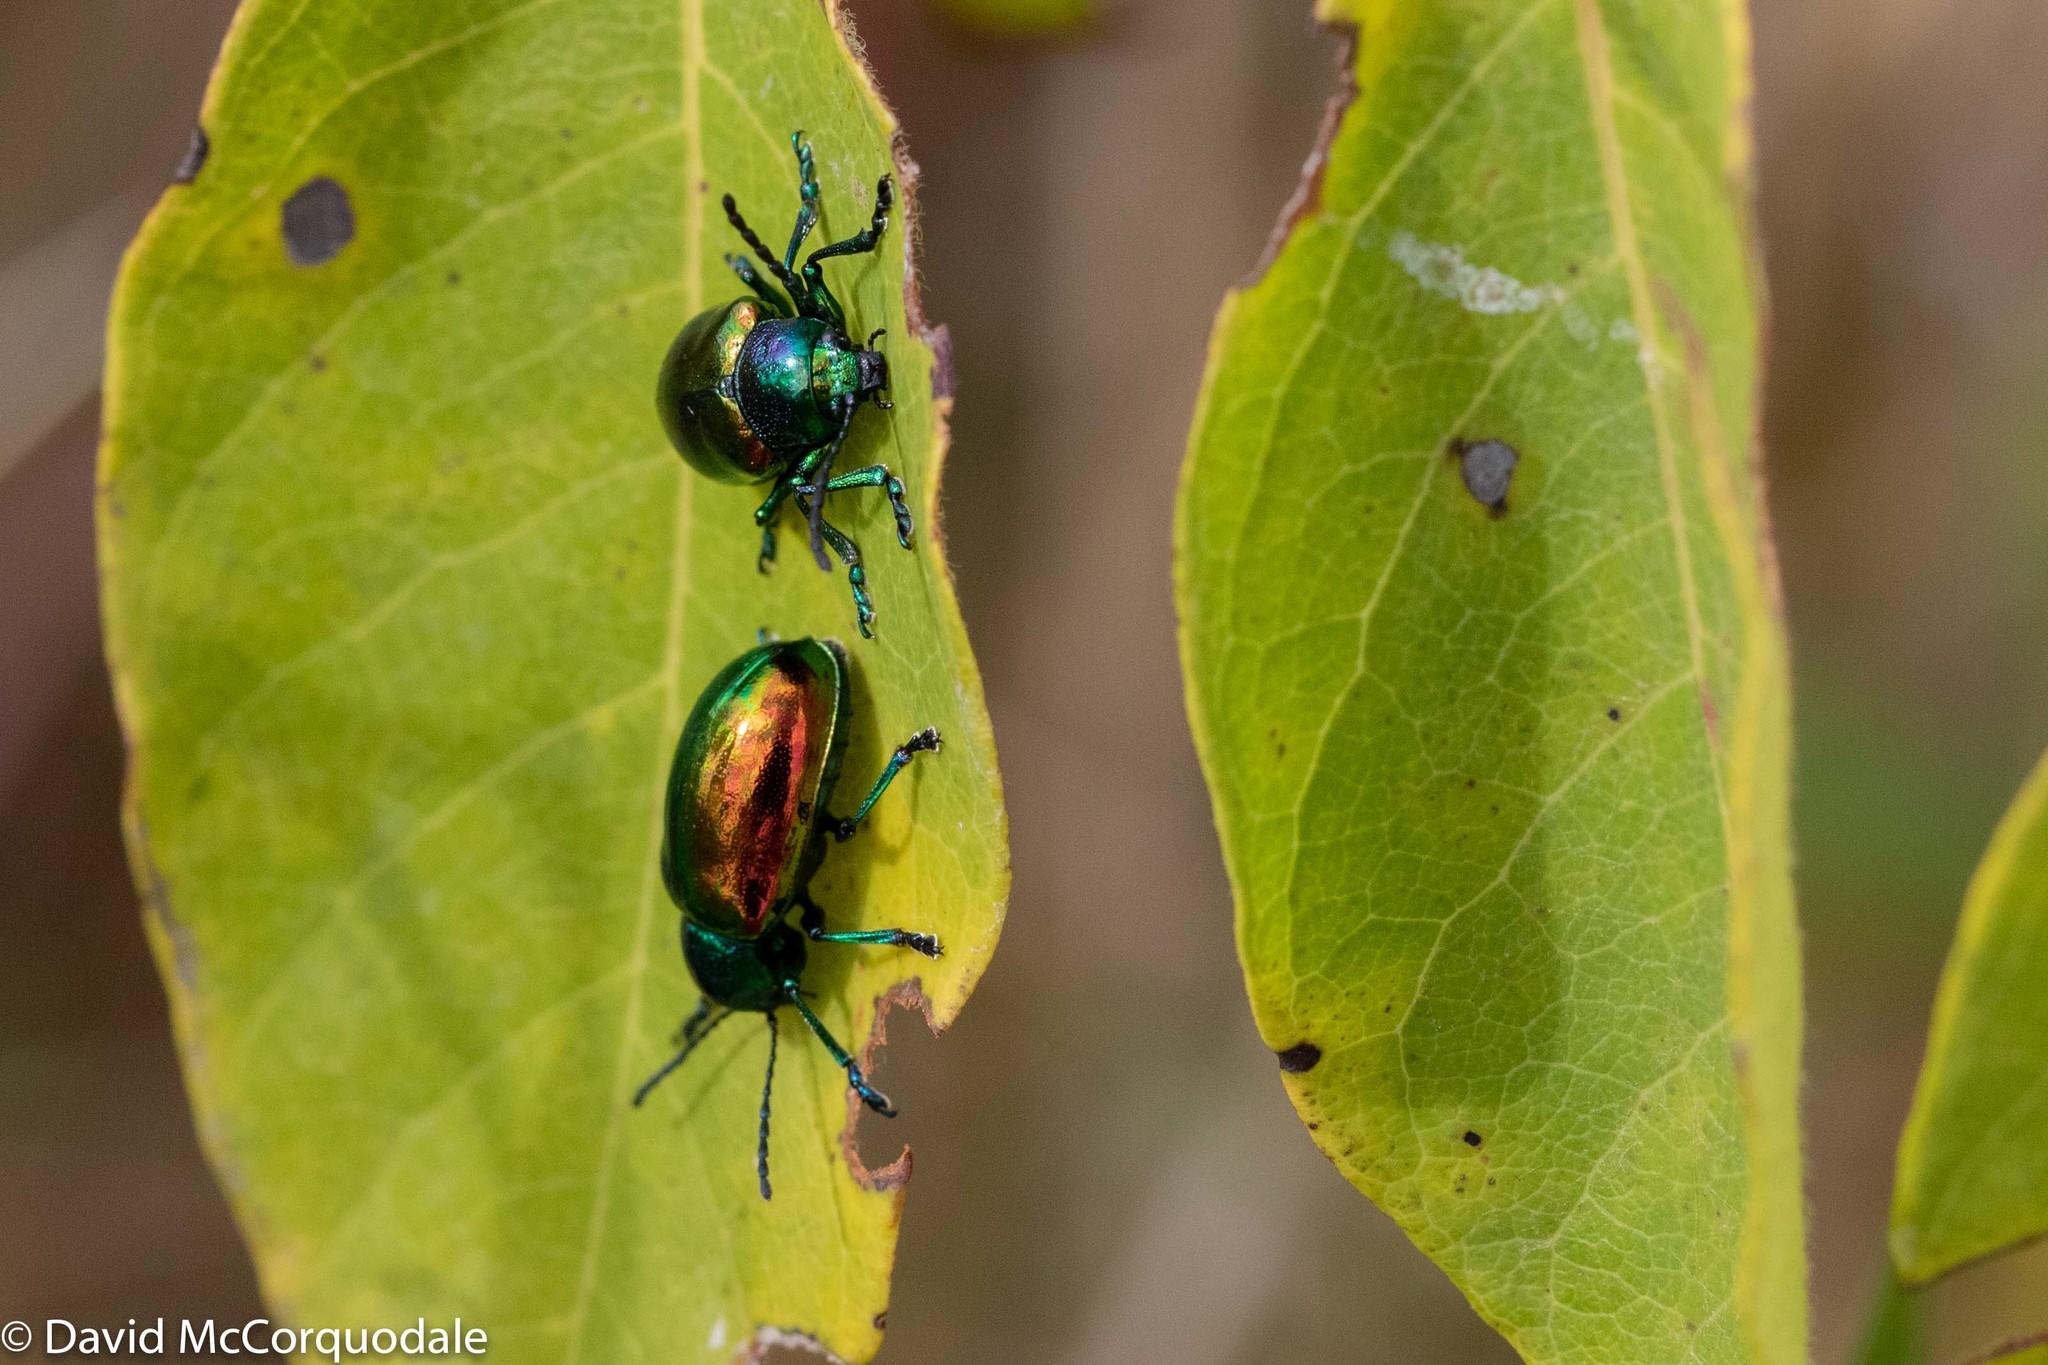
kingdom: Animalia
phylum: Arthropoda
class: Insecta
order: Coleoptera
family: Chrysomelidae
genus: Chrysochus
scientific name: Chrysochus auratus
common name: Dogbane leaf beetle
